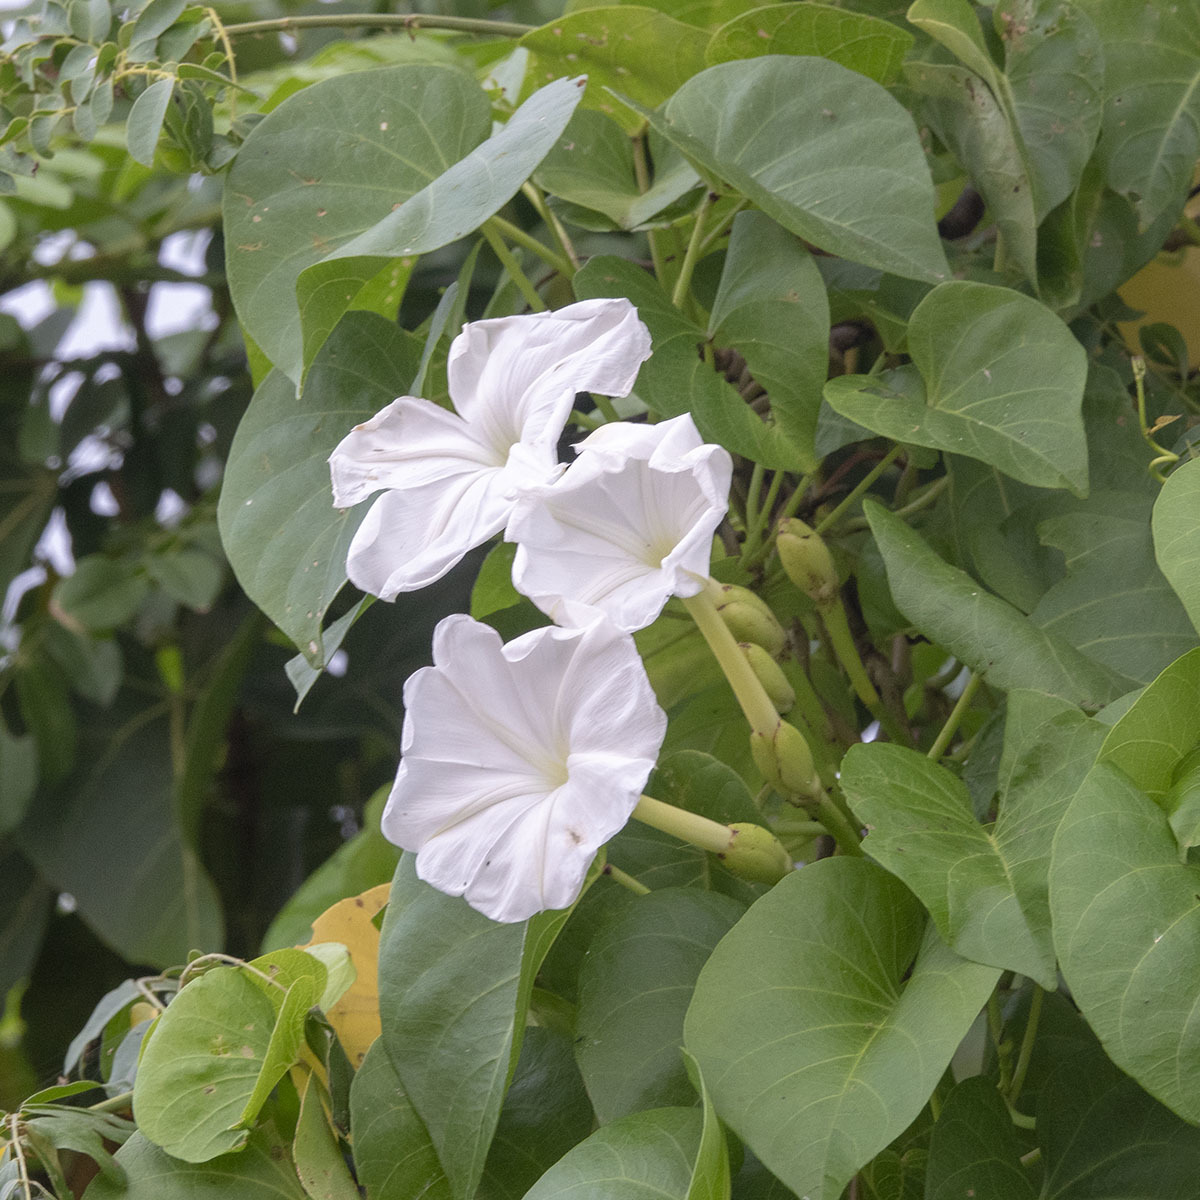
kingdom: Plantae
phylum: Tracheophyta
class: Magnoliopsida
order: Solanales
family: Convolvulaceae
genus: Ipomoea
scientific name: Ipomoea violacea
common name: Beach moonflower
